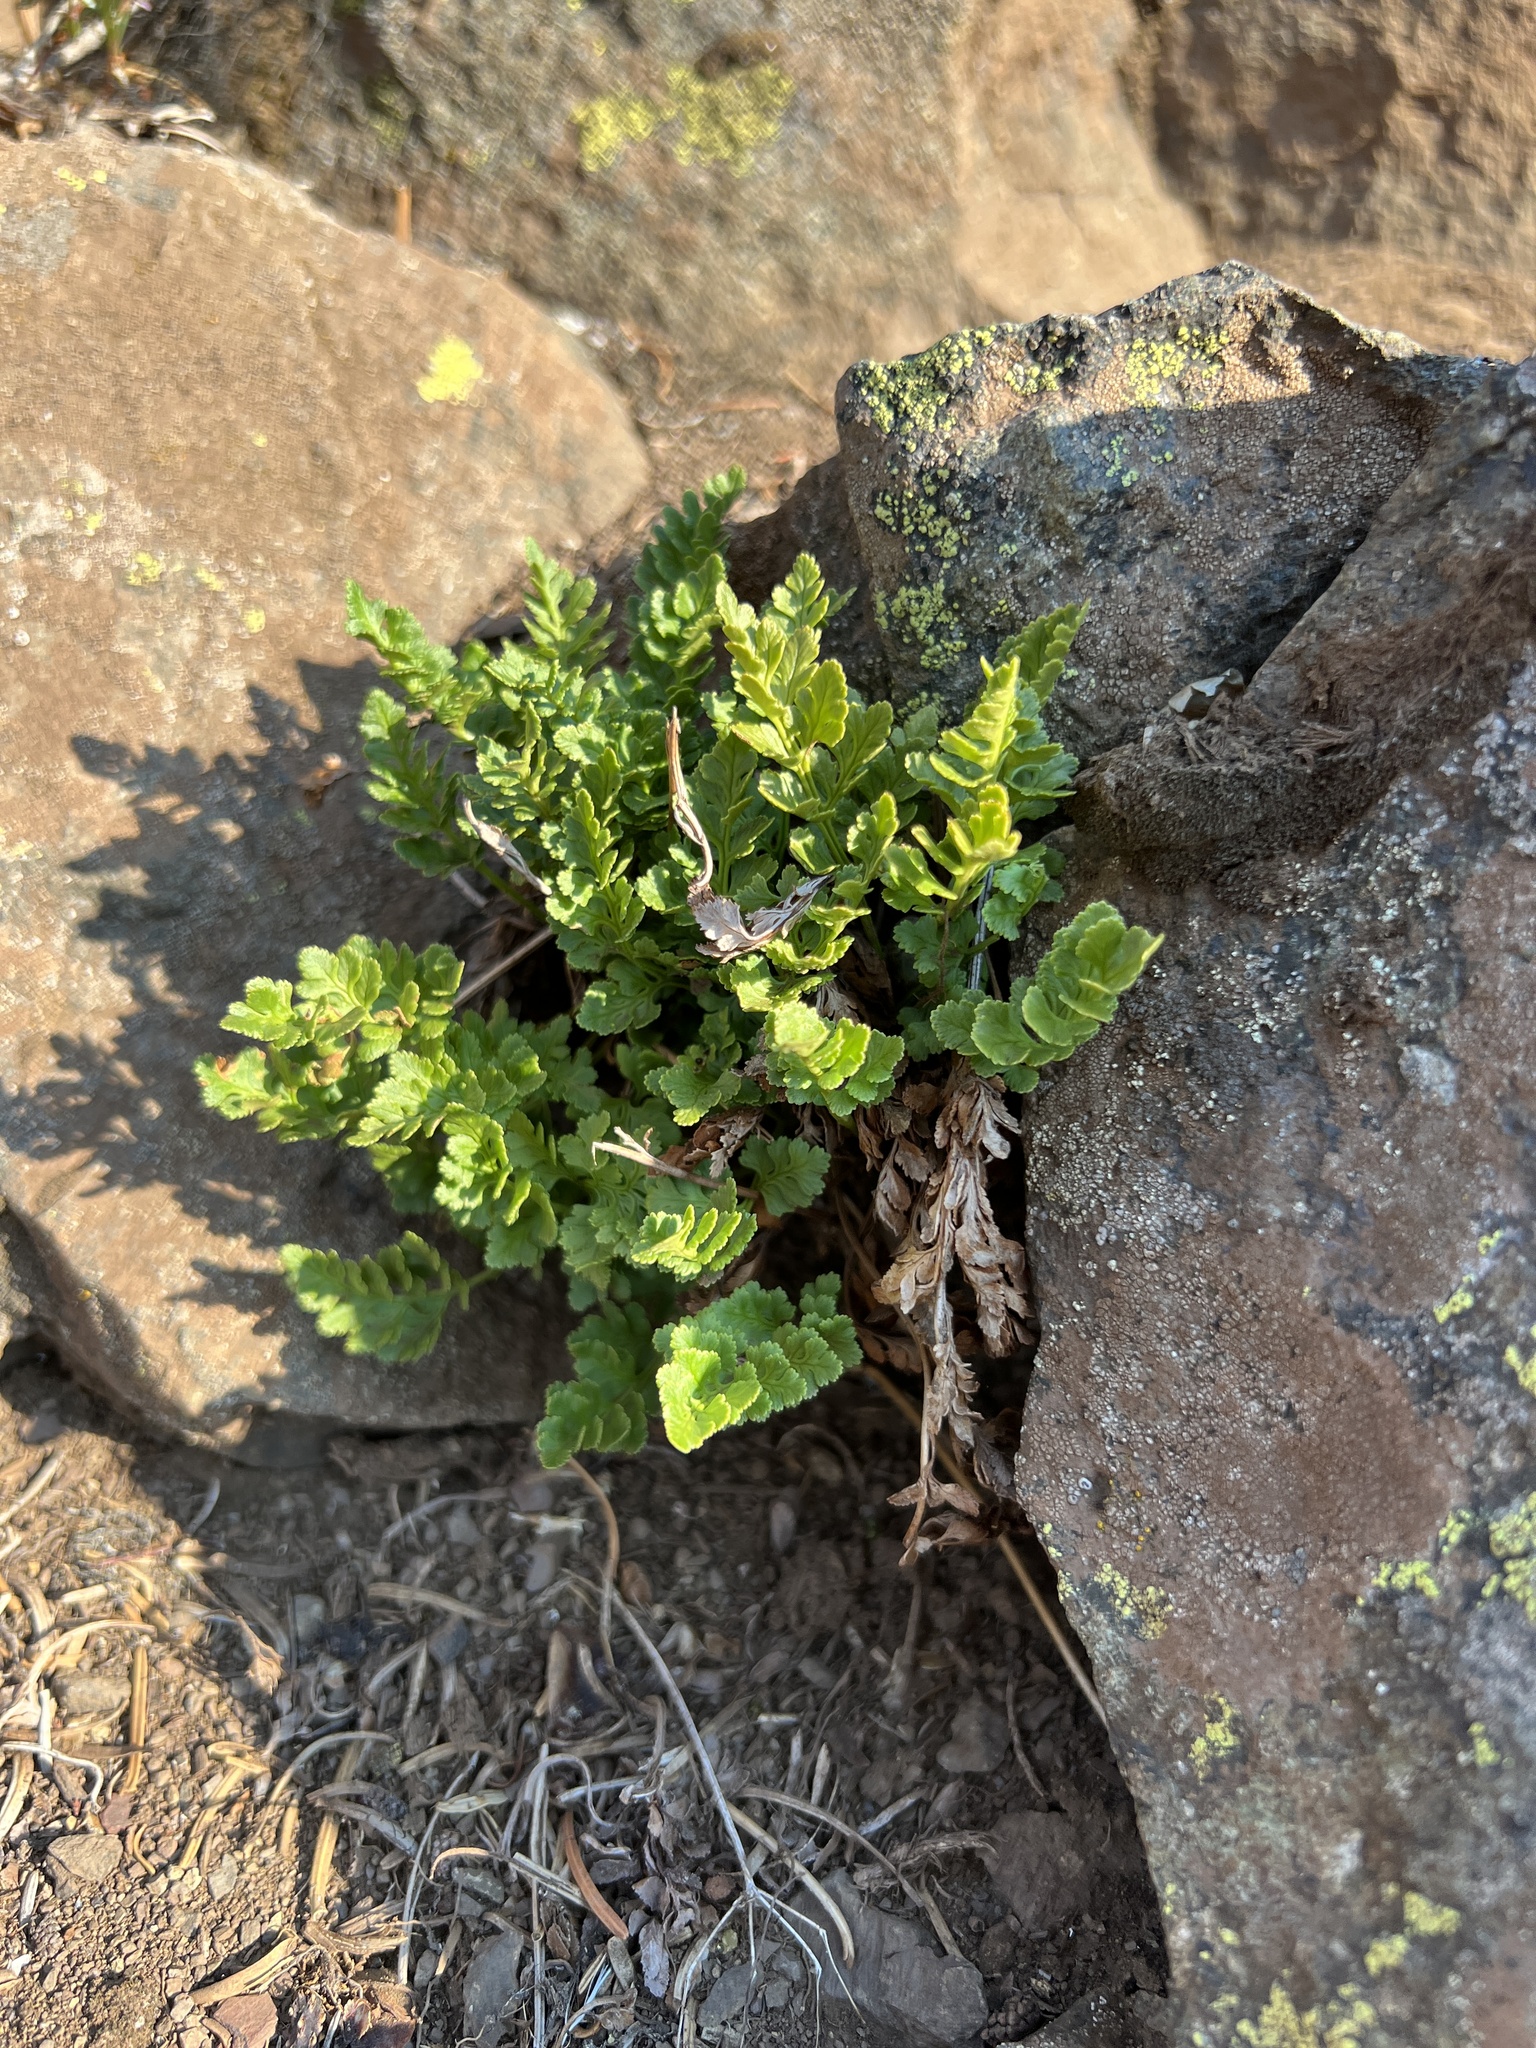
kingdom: Plantae
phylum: Tracheophyta
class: Polypodiopsida
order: Polypodiales
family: Pteridaceae
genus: Cryptogramma
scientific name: Cryptogramma acrostichoides
